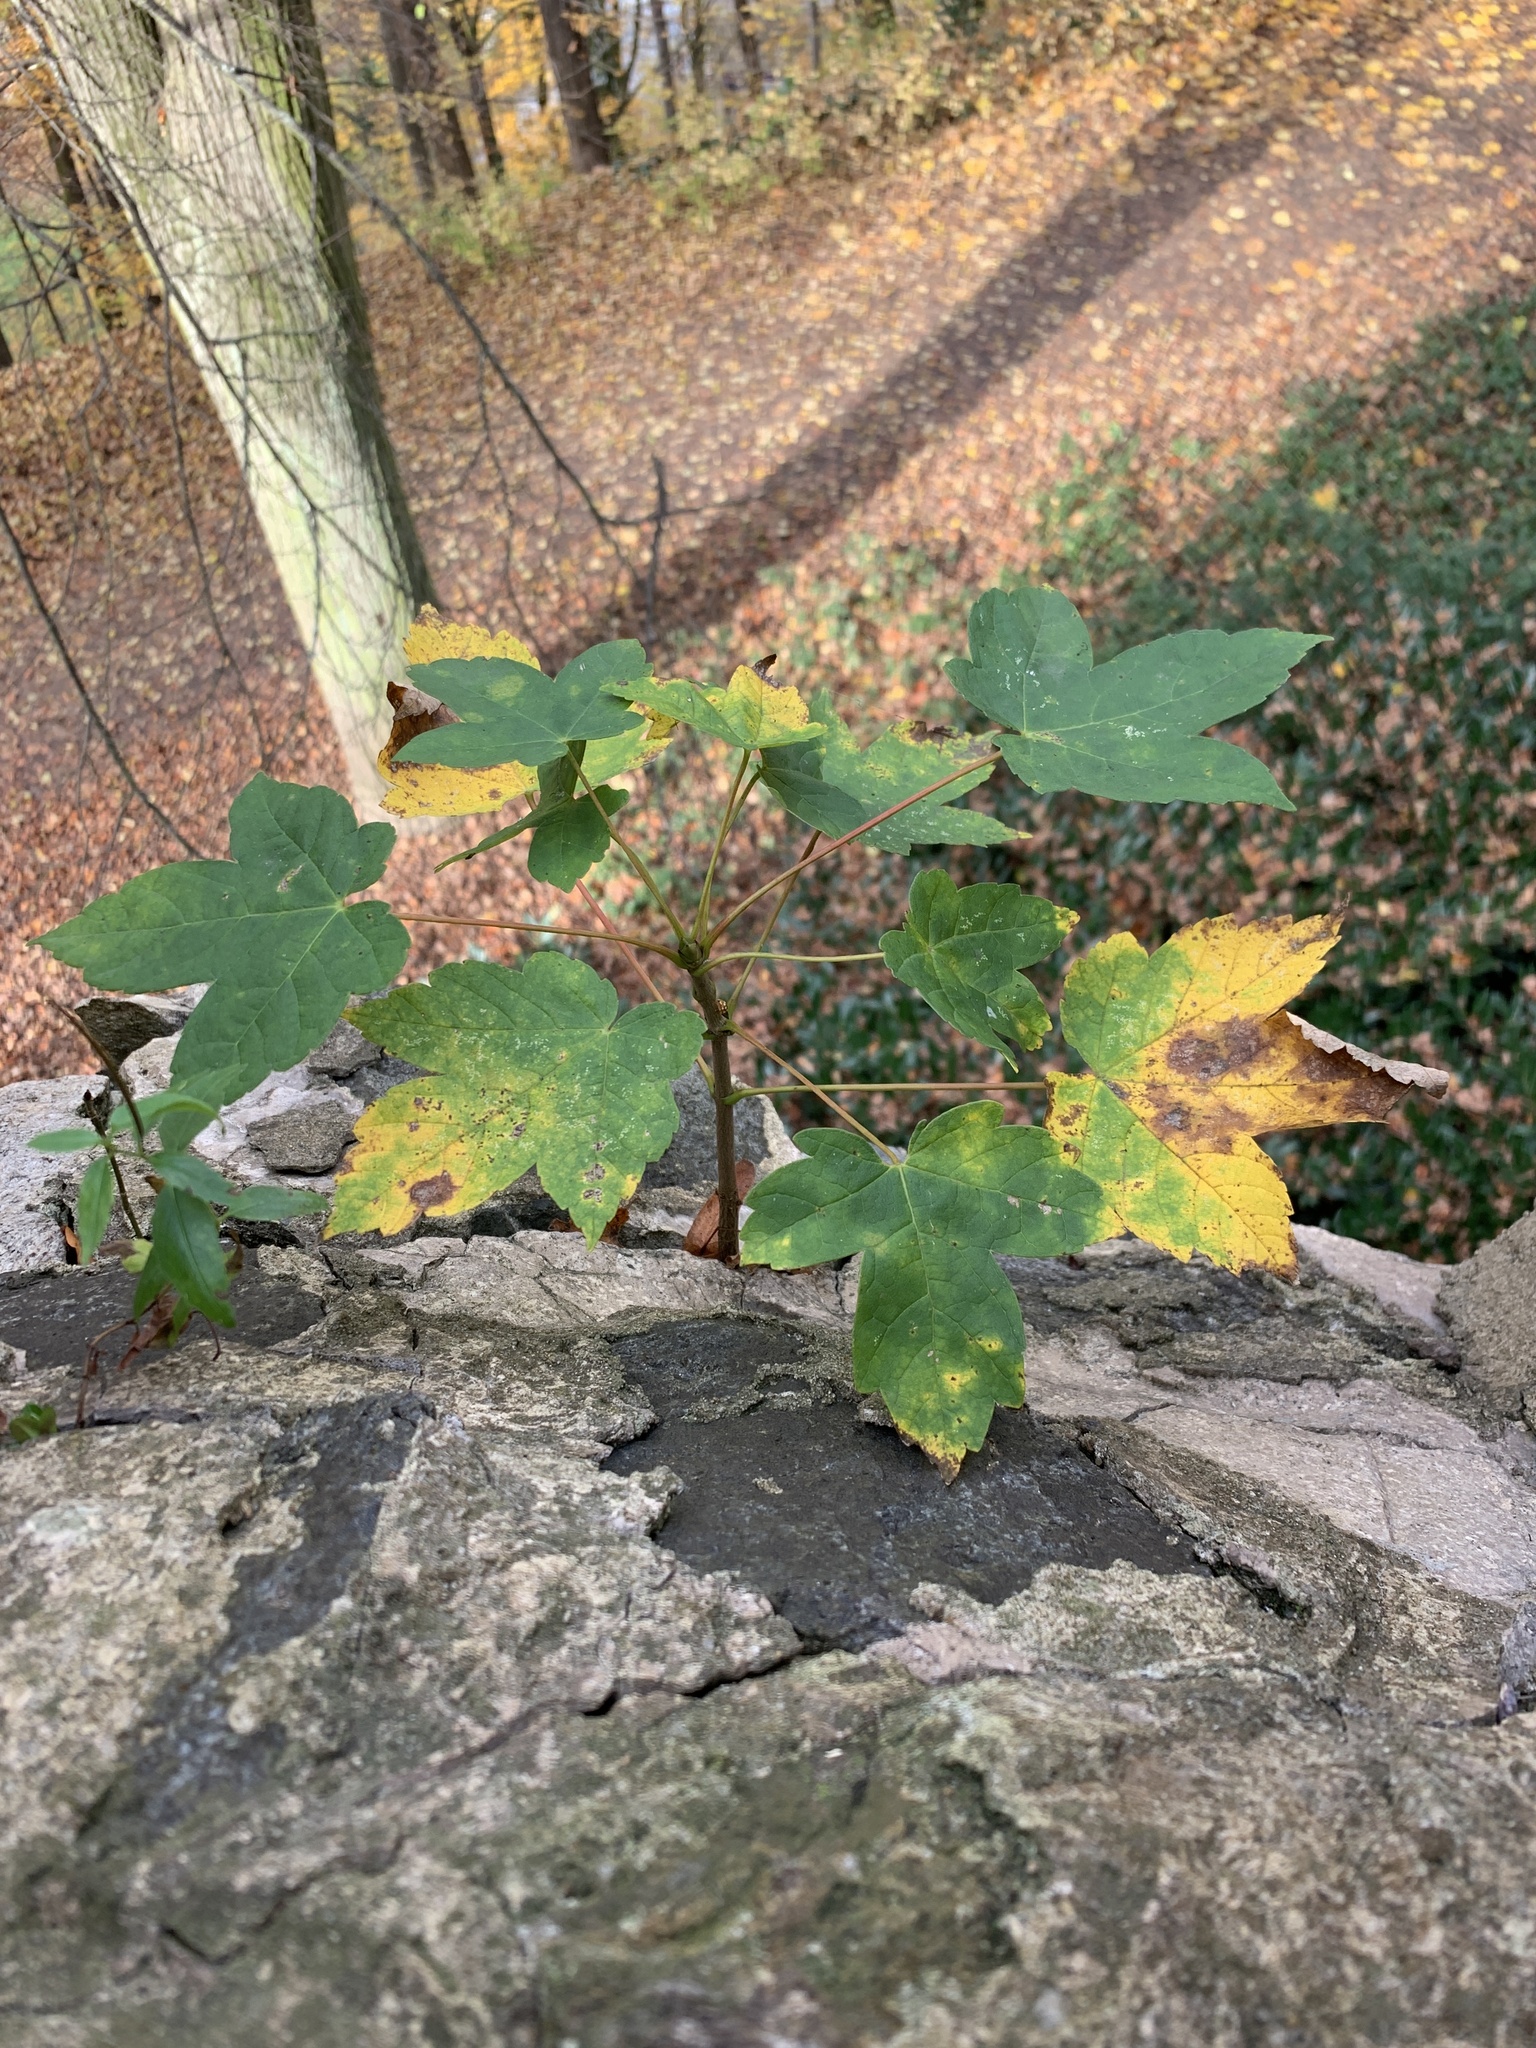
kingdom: Plantae
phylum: Tracheophyta
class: Magnoliopsida
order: Sapindales
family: Sapindaceae
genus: Acer
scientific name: Acer pseudoplatanus
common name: Sycamore
